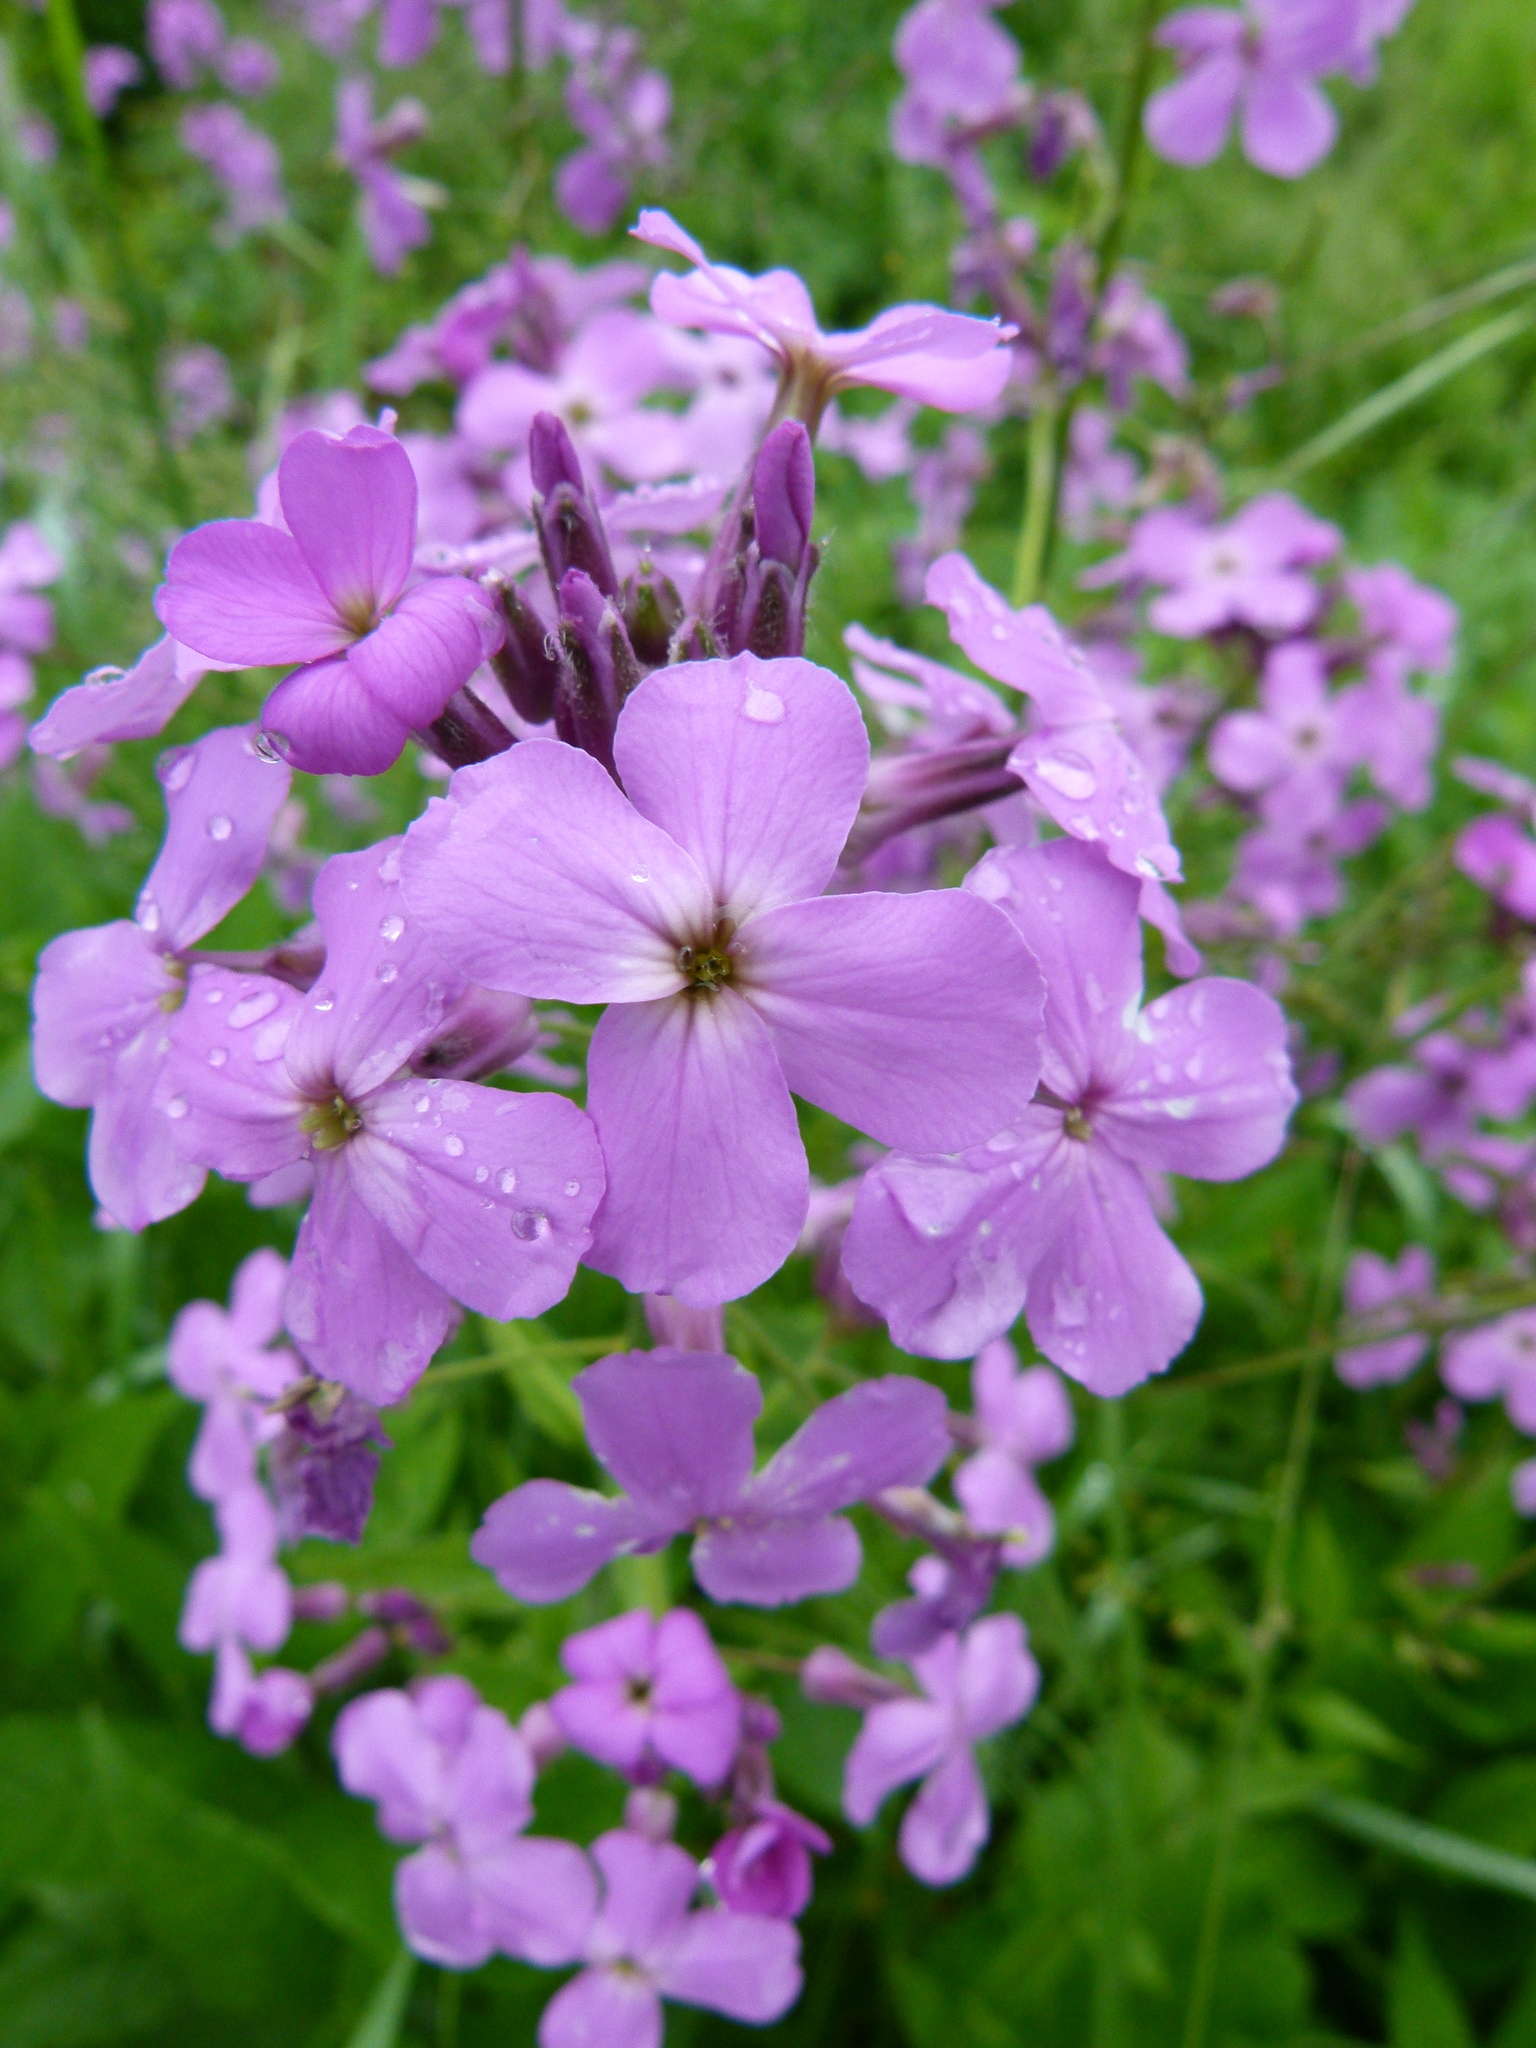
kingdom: Plantae
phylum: Tracheophyta
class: Magnoliopsida
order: Brassicales
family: Brassicaceae
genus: Hesperis
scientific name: Hesperis matronalis
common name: Dame's-violet
